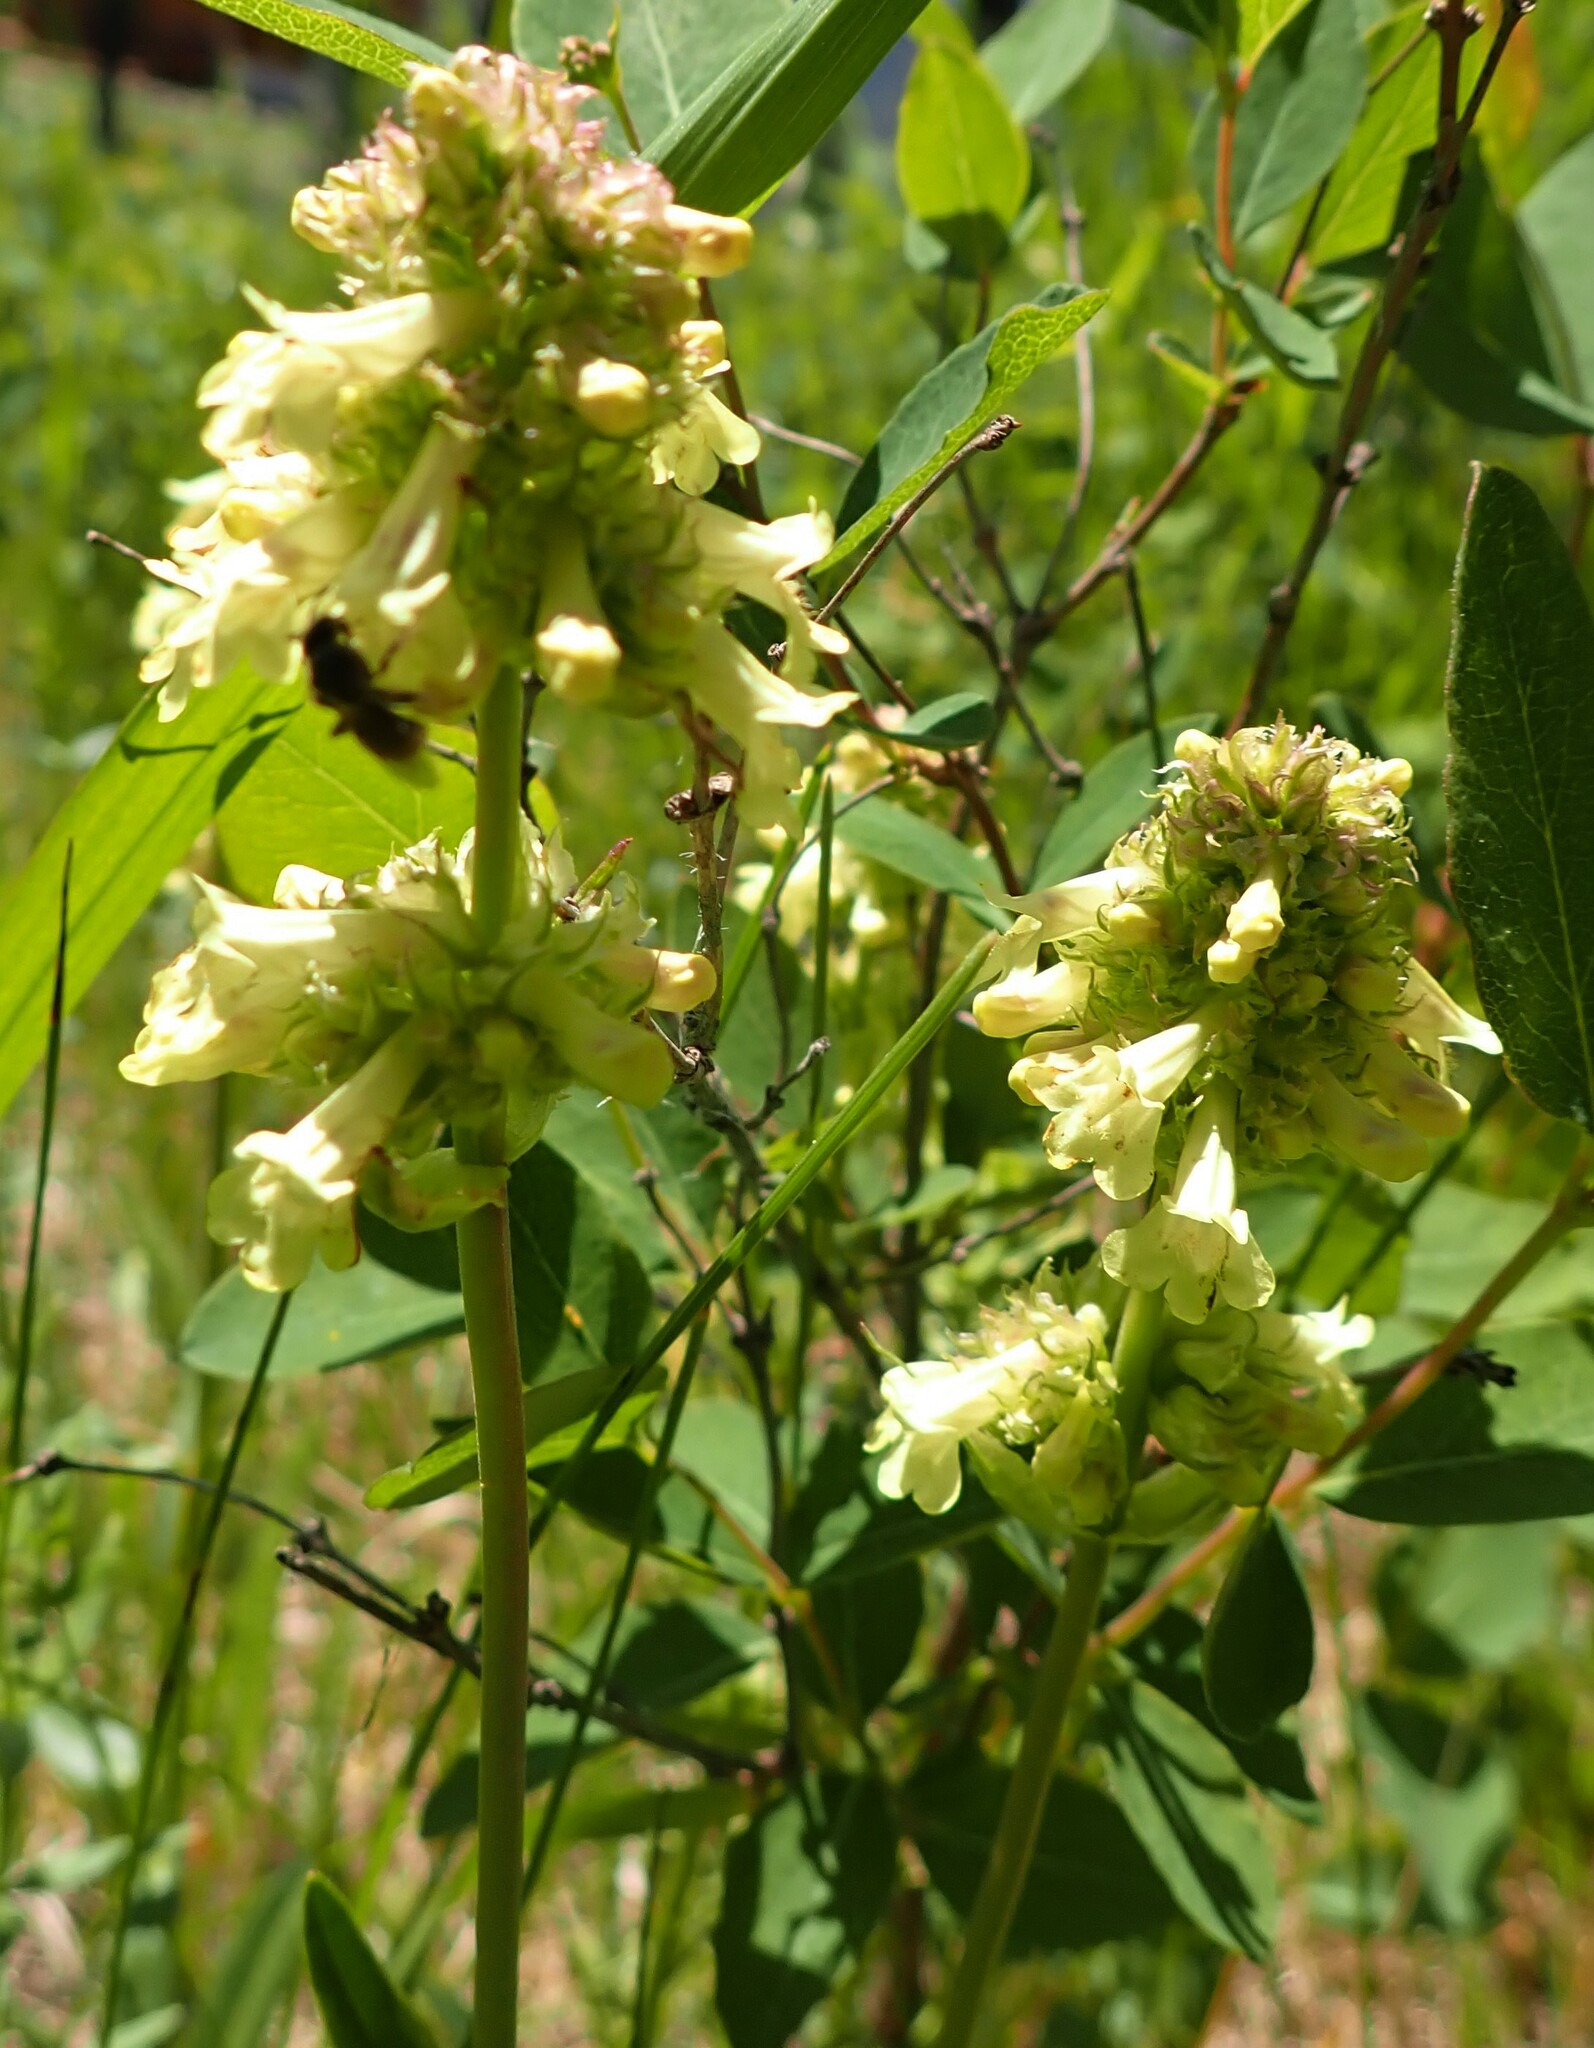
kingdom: Plantae
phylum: Tracheophyta
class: Magnoliopsida
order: Lamiales
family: Plantaginaceae
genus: Penstemon
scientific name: Penstemon confertus
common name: Lesser yellow beardtongue
